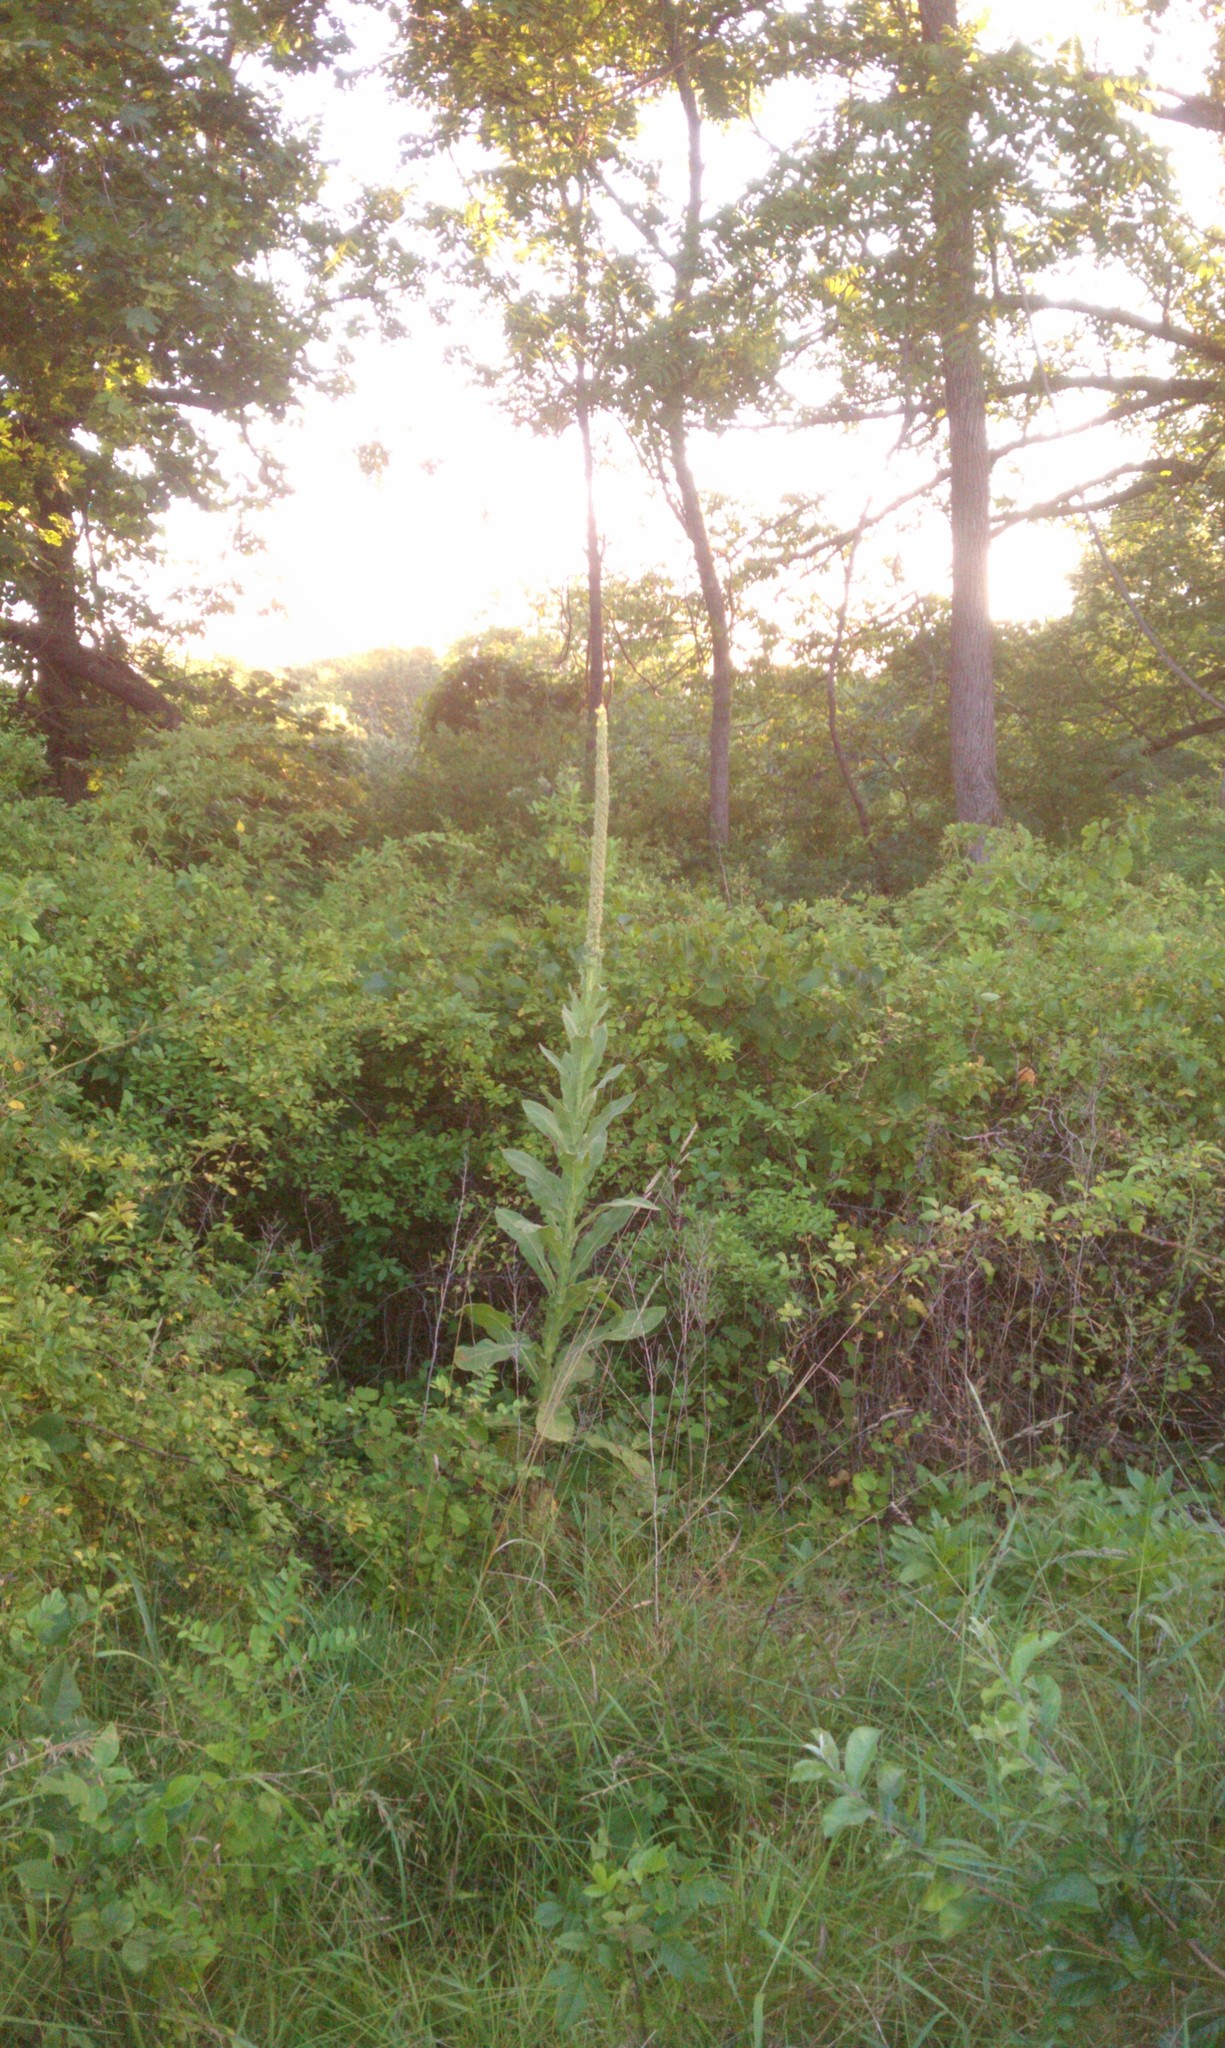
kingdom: Plantae
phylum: Tracheophyta
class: Magnoliopsida
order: Lamiales
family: Scrophulariaceae
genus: Verbascum
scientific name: Verbascum thapsus
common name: Common mullein
